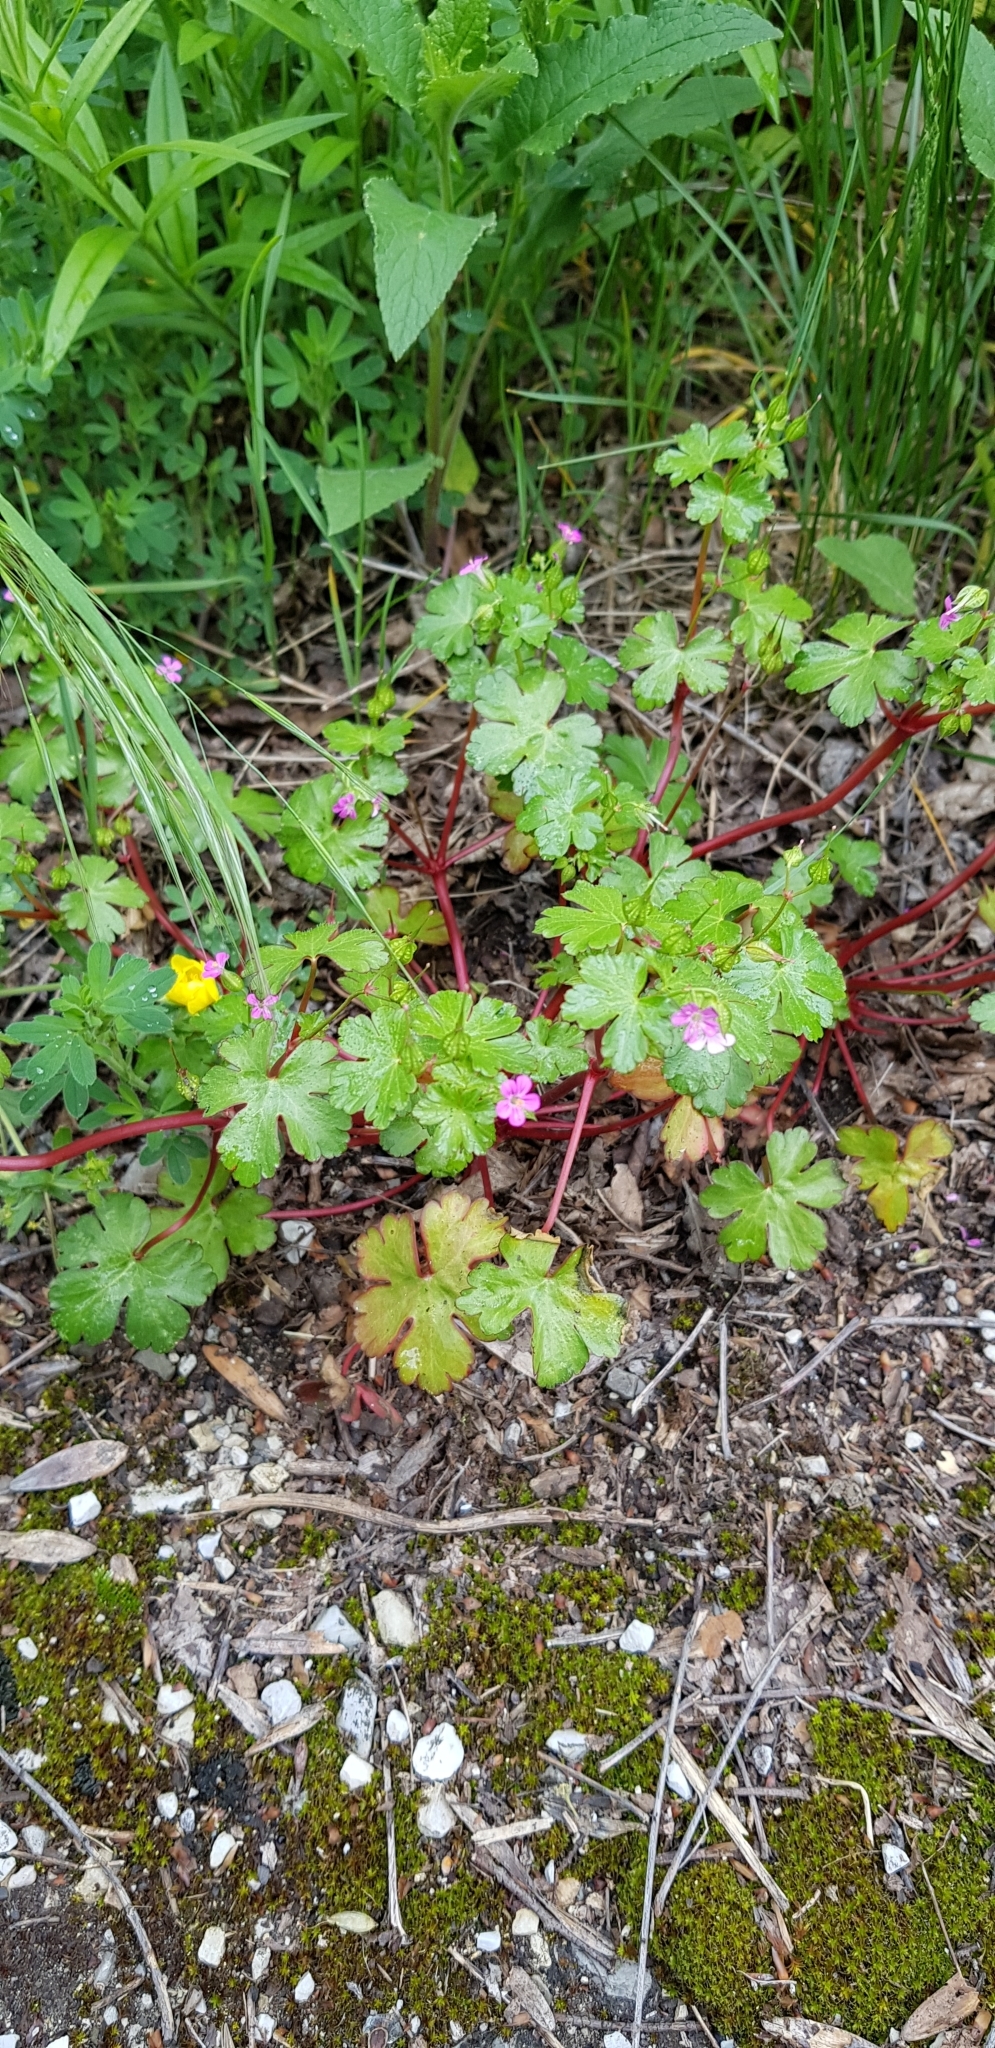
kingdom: Plantae
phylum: Tracheophyta
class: Magnoliopsida
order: Geraniales
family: Geraniaceae
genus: Geranium
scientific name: Geranium lucidum
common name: Shining crane's-bill
